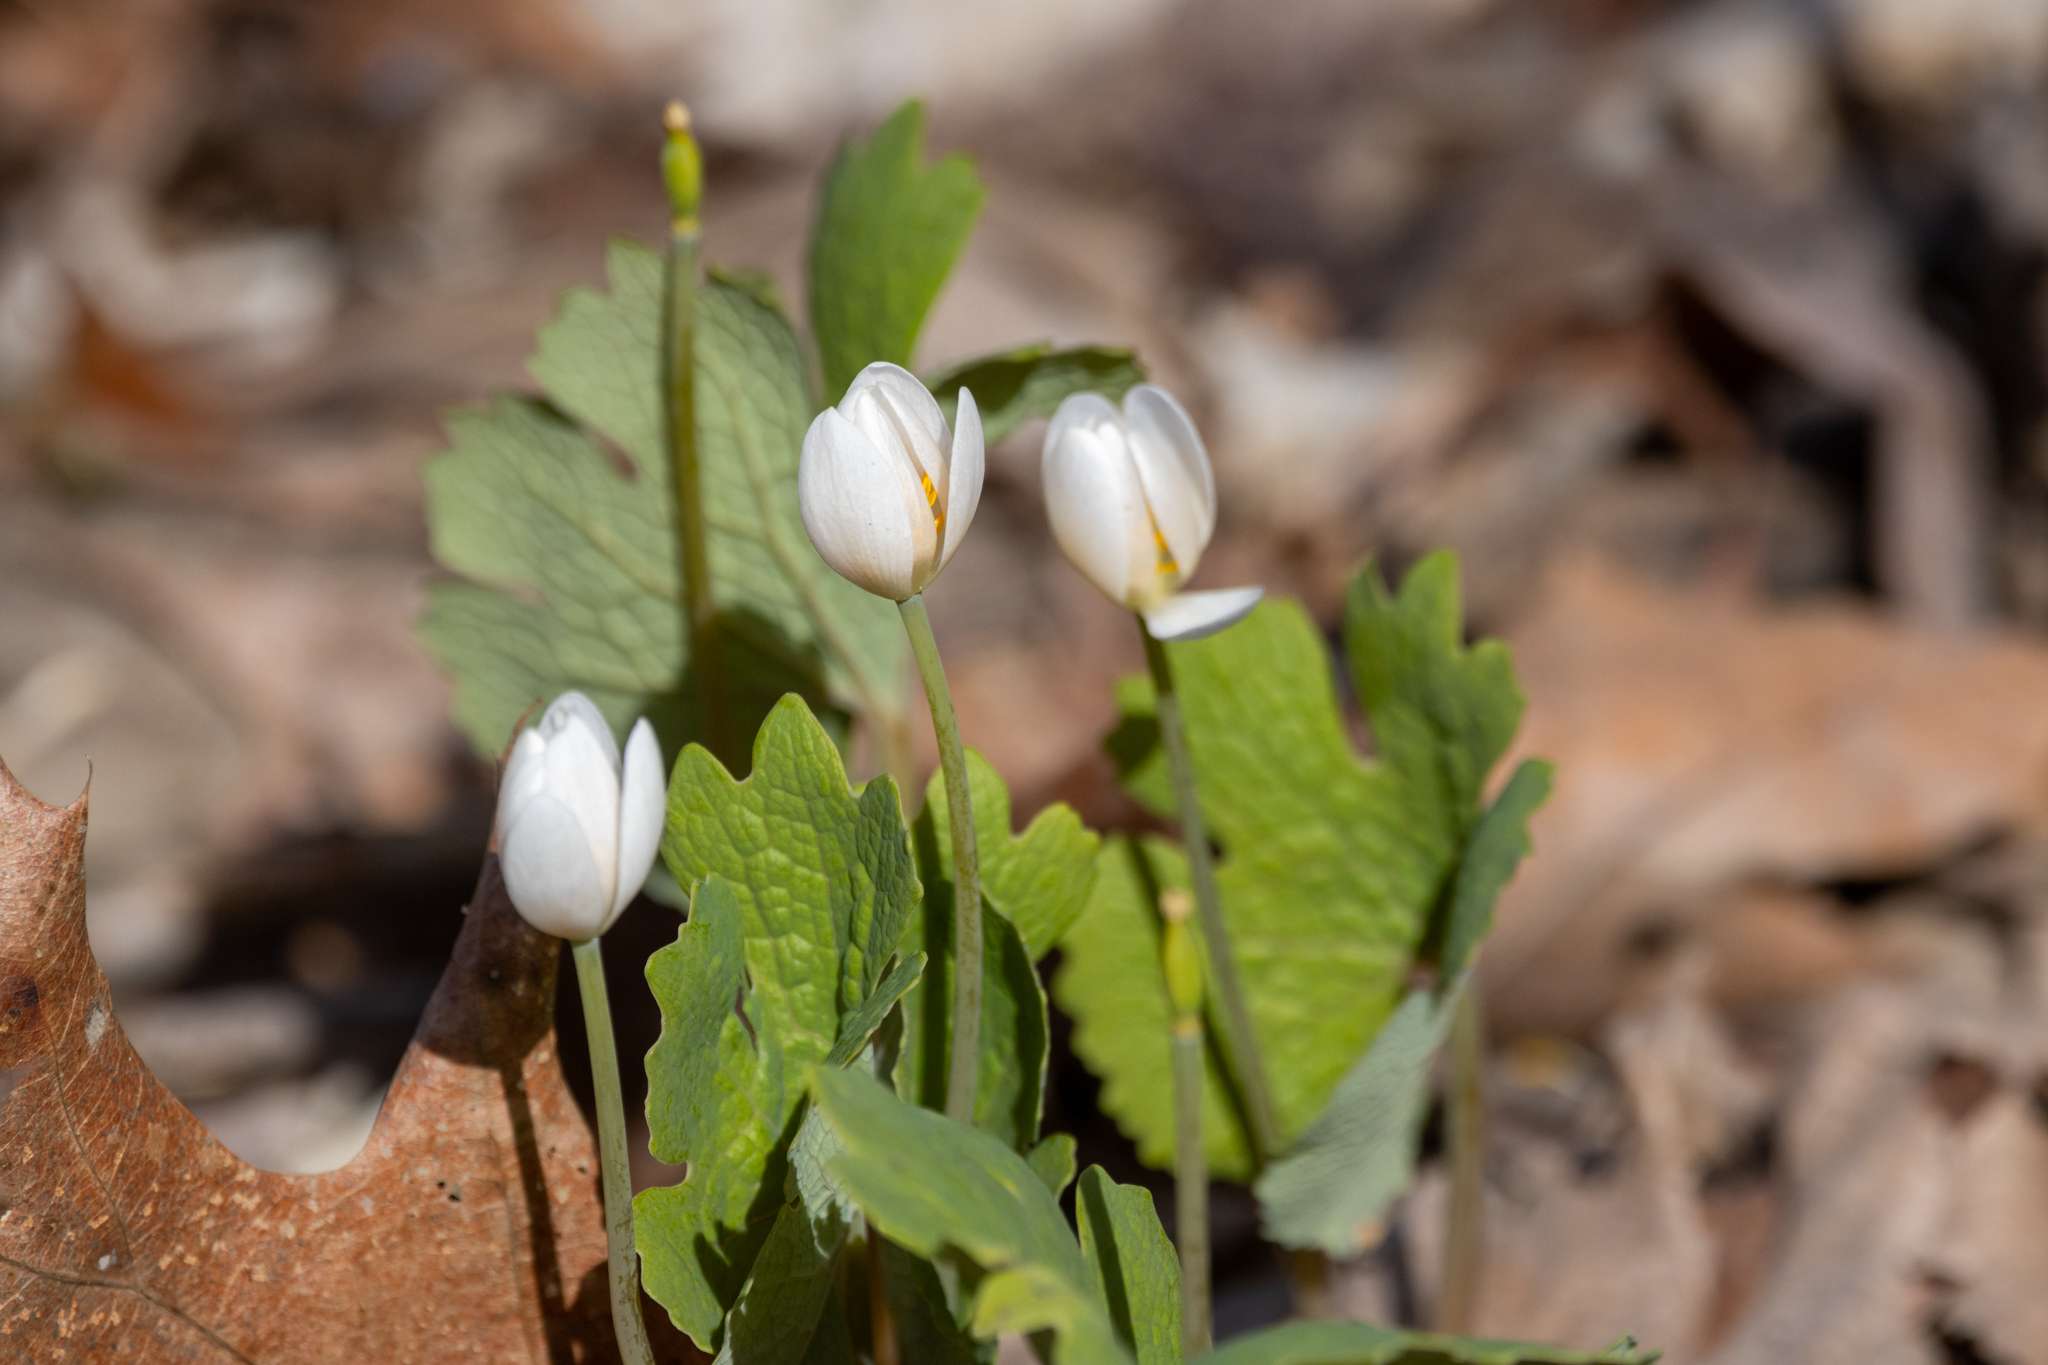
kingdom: Plantae
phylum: Tracheophyta
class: Magnoliopsida
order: Ranunculales
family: Papaveraceae
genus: Sanguinaria
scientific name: Sanguinaria canadensis
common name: Bloodroot
